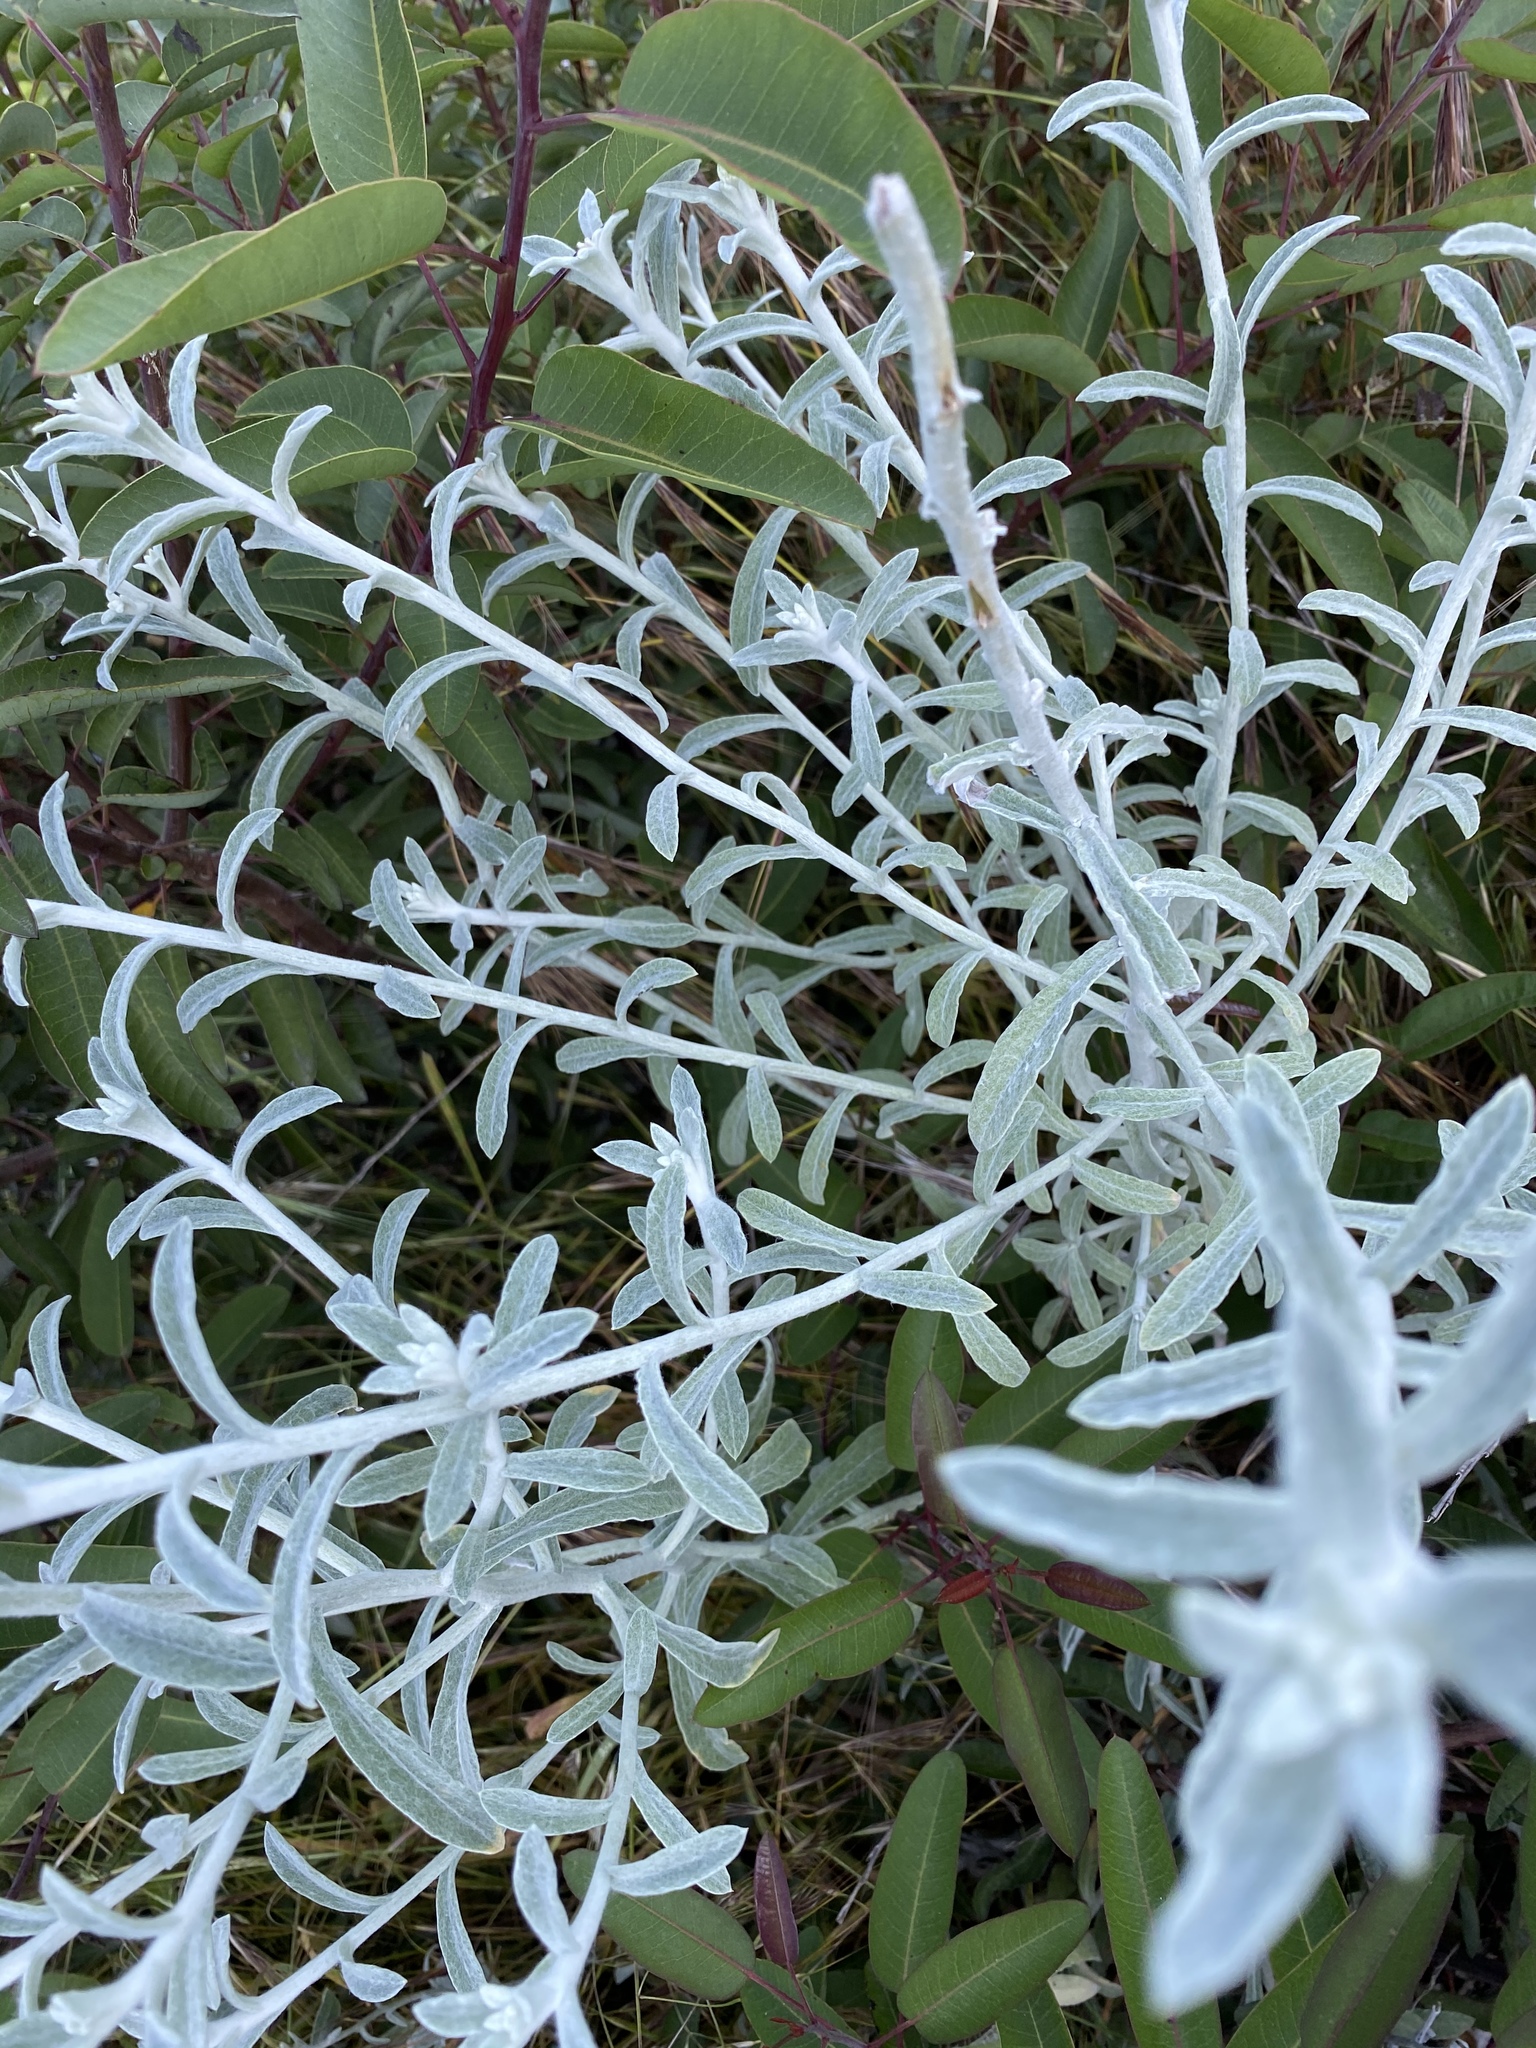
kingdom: Plantae
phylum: Tracheophyta
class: Magnoliopsida
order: Asterales
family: Asteraceae
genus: Pseudognaphalium
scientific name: Pseudognaphalium microcephalum
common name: San diego rabbit-tobacco
